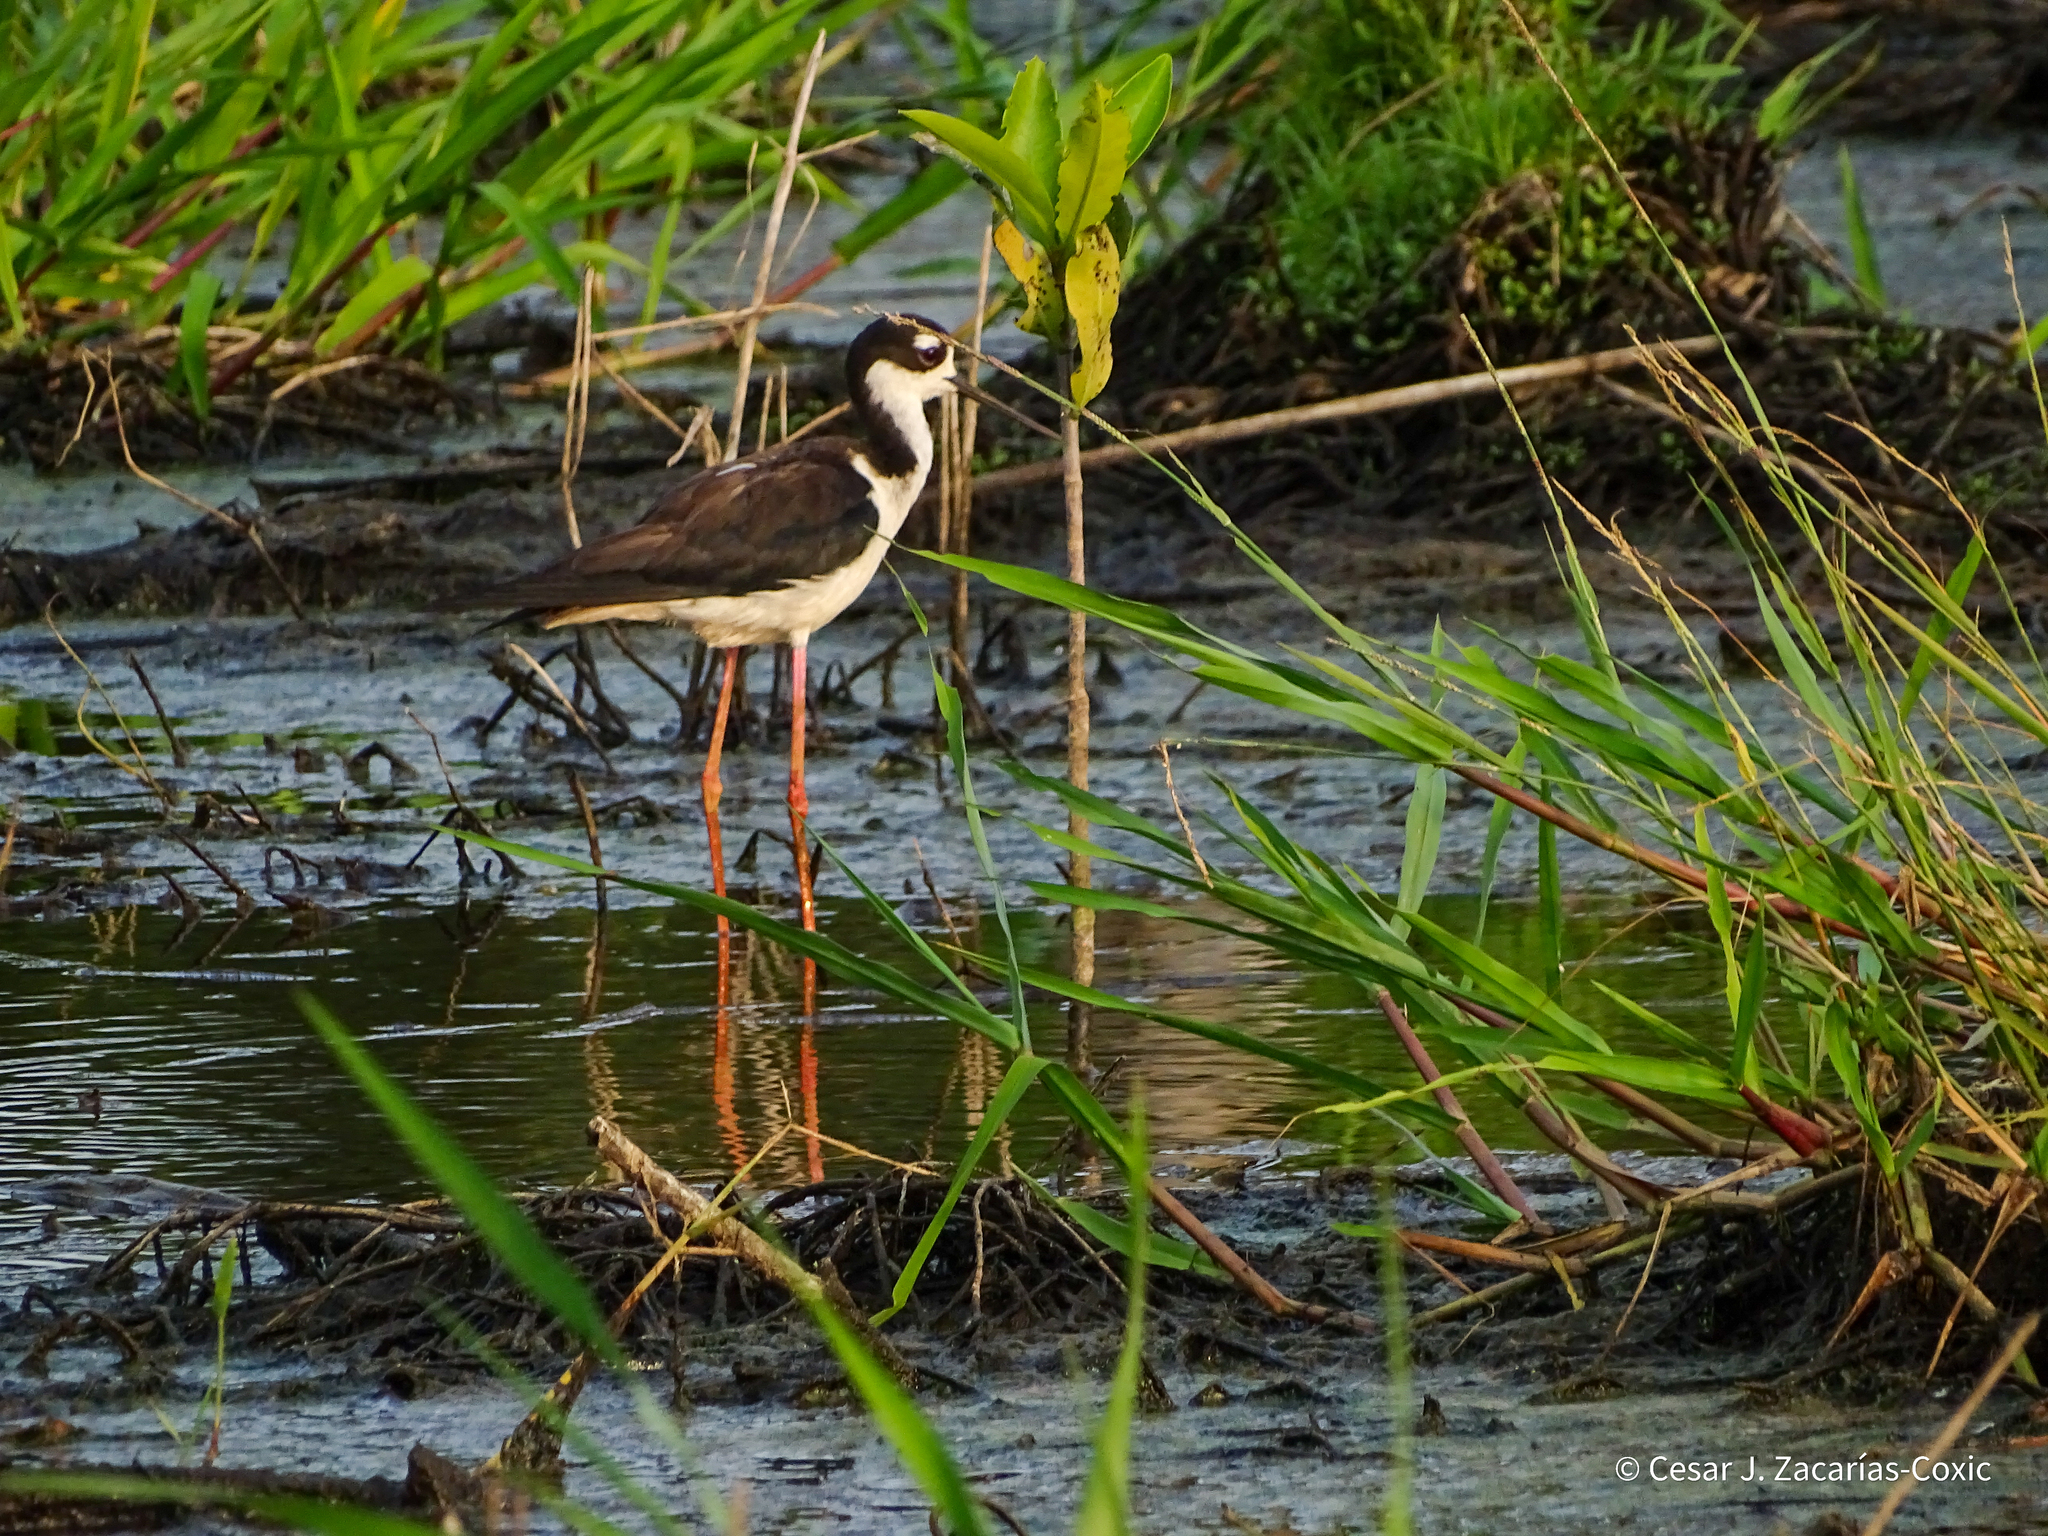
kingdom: Animalia
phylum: Chordata
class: Aves
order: Charadriiformes
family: Recurvirostridae
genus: Himantopus
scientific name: Himantopus mexicanus
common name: Black-necked stilt
